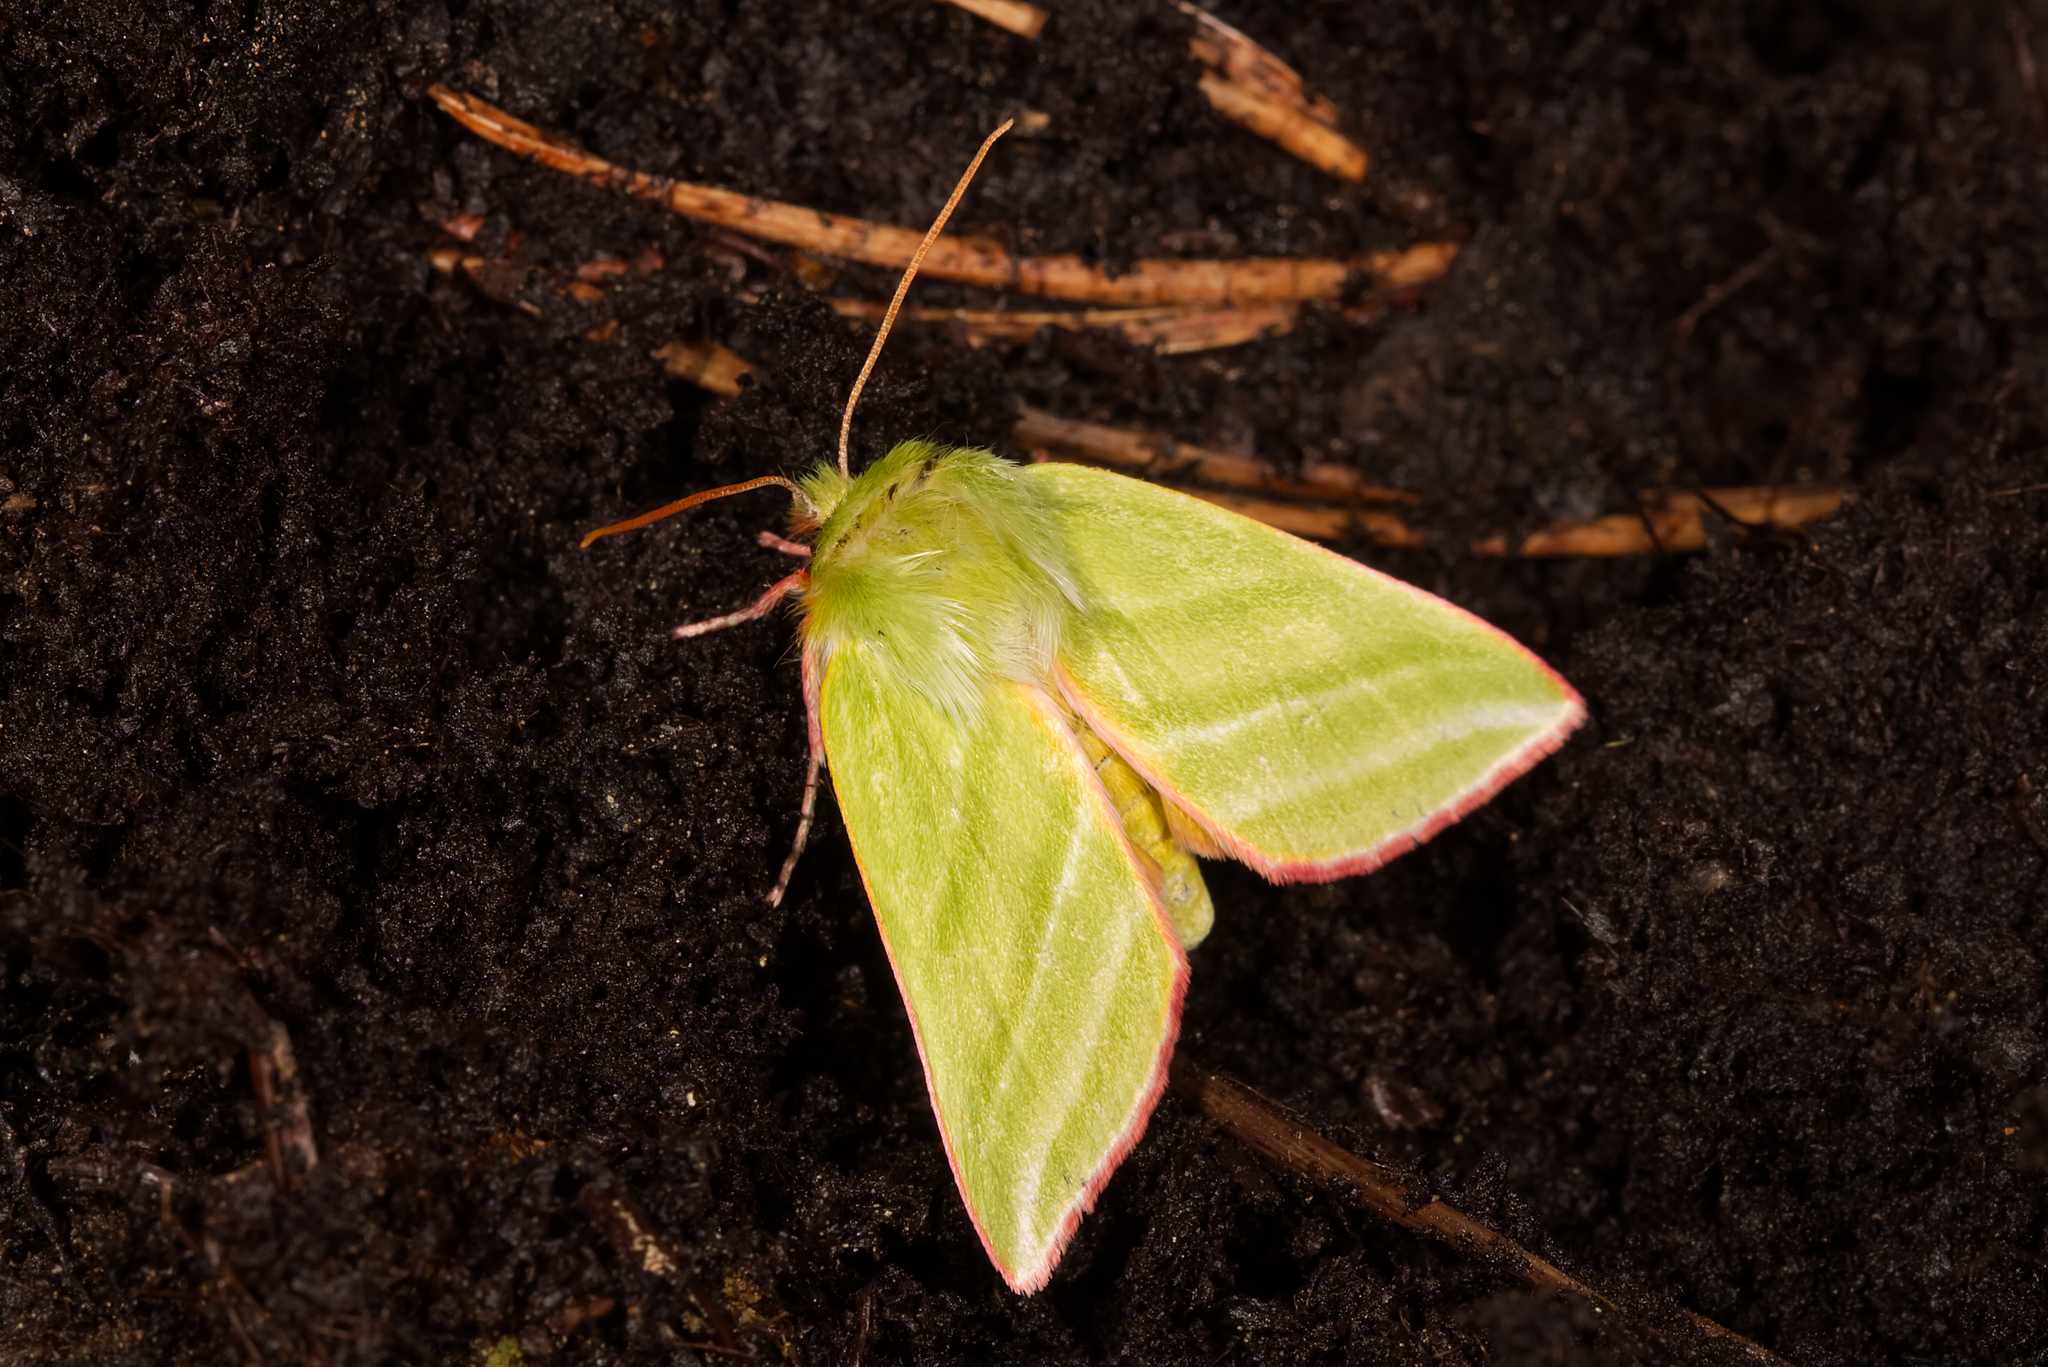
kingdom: Animalia
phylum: Arthropoda
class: Insecta
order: Lepidoptera
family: Nolidae
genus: Pseudoips
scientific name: Pseudoips prasinana
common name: Green silver-lines
